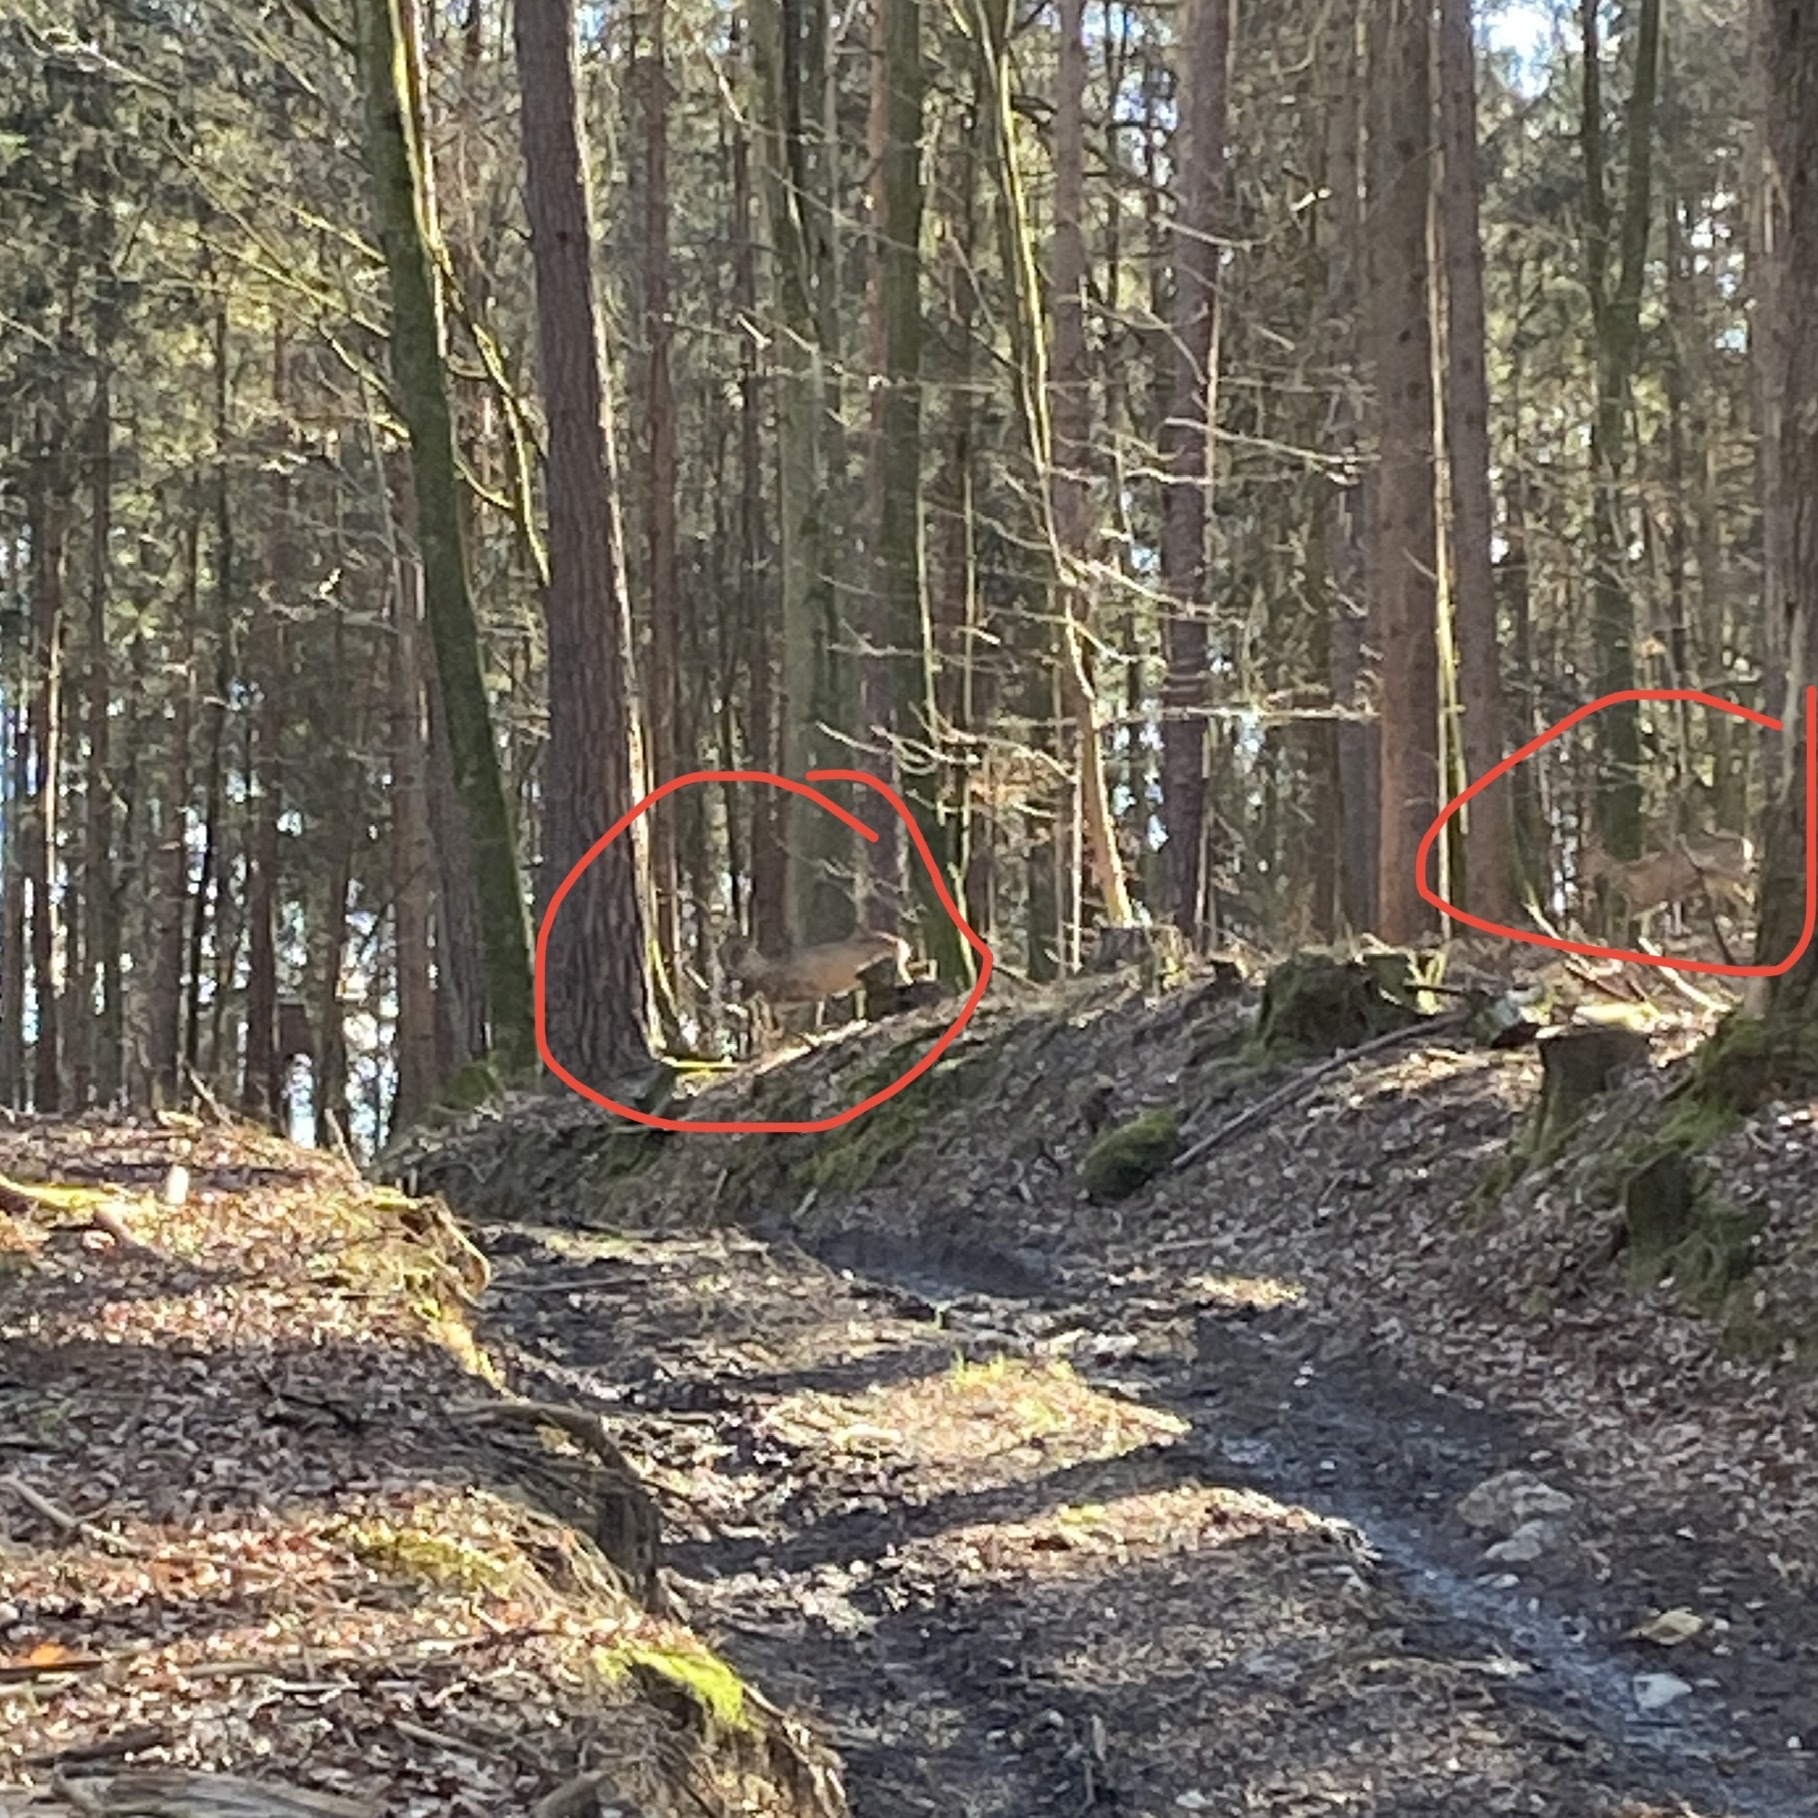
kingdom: Animalia
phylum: Chordata
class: Mammalia
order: Artiodactyla
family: Cervidae
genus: Capreolus
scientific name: Capreolus capreolus
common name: Western roe deer
